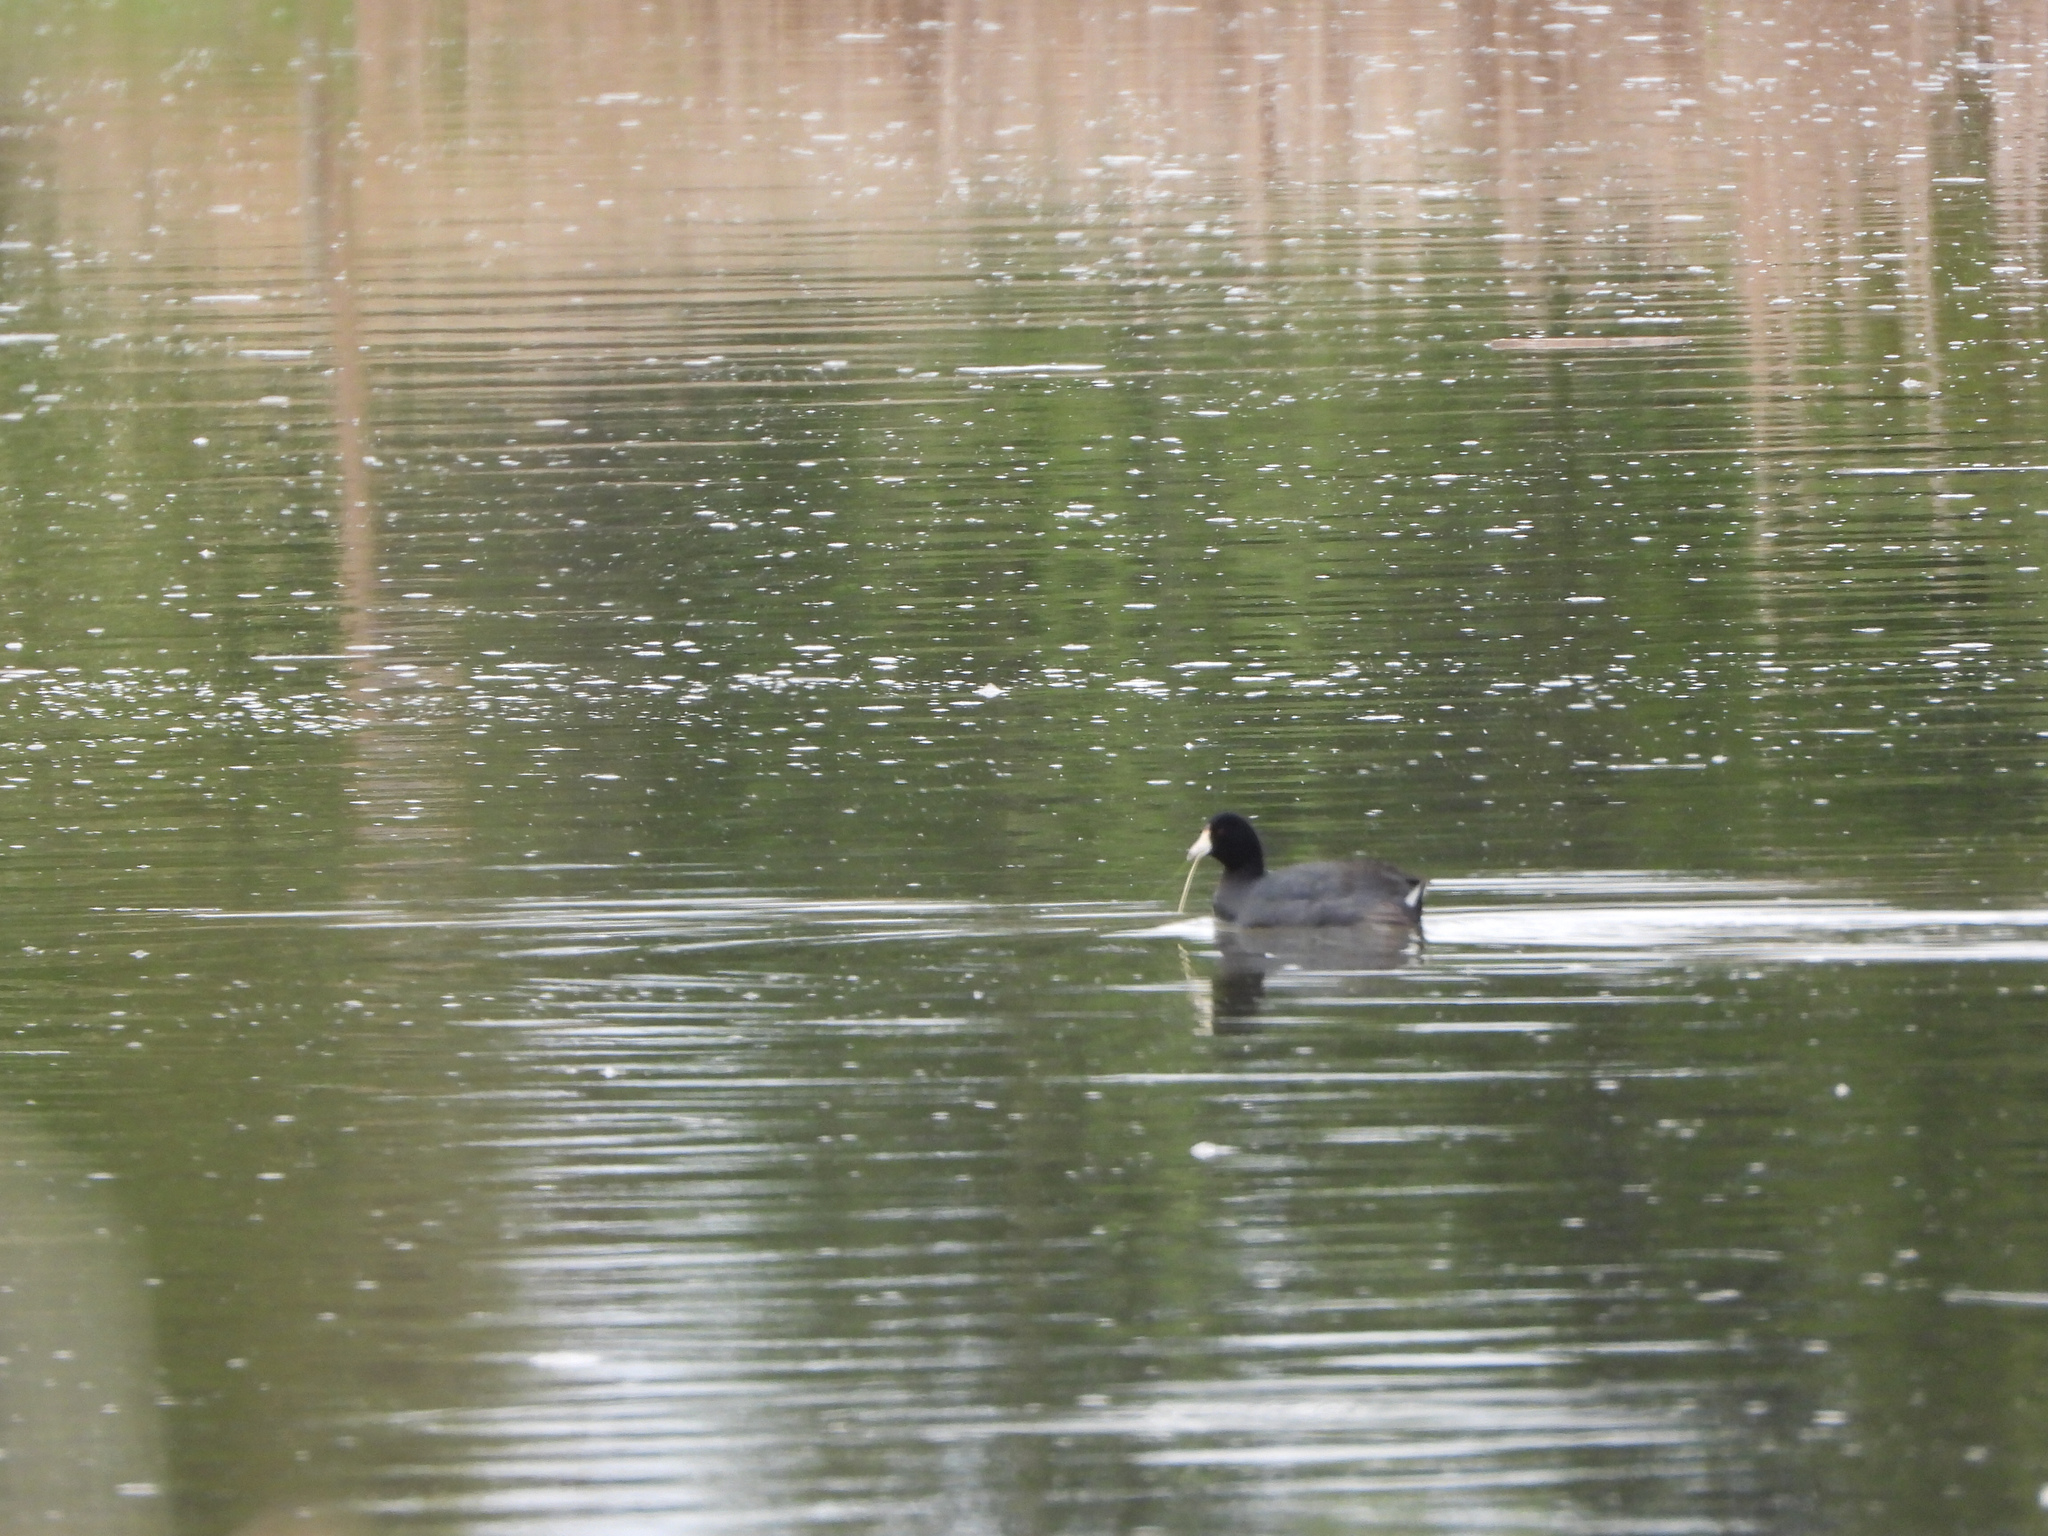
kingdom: Animalia
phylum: Chordata
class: Aves
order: Gruiformes
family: Rallidae
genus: Fulica
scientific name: Fulica americana
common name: American coot
